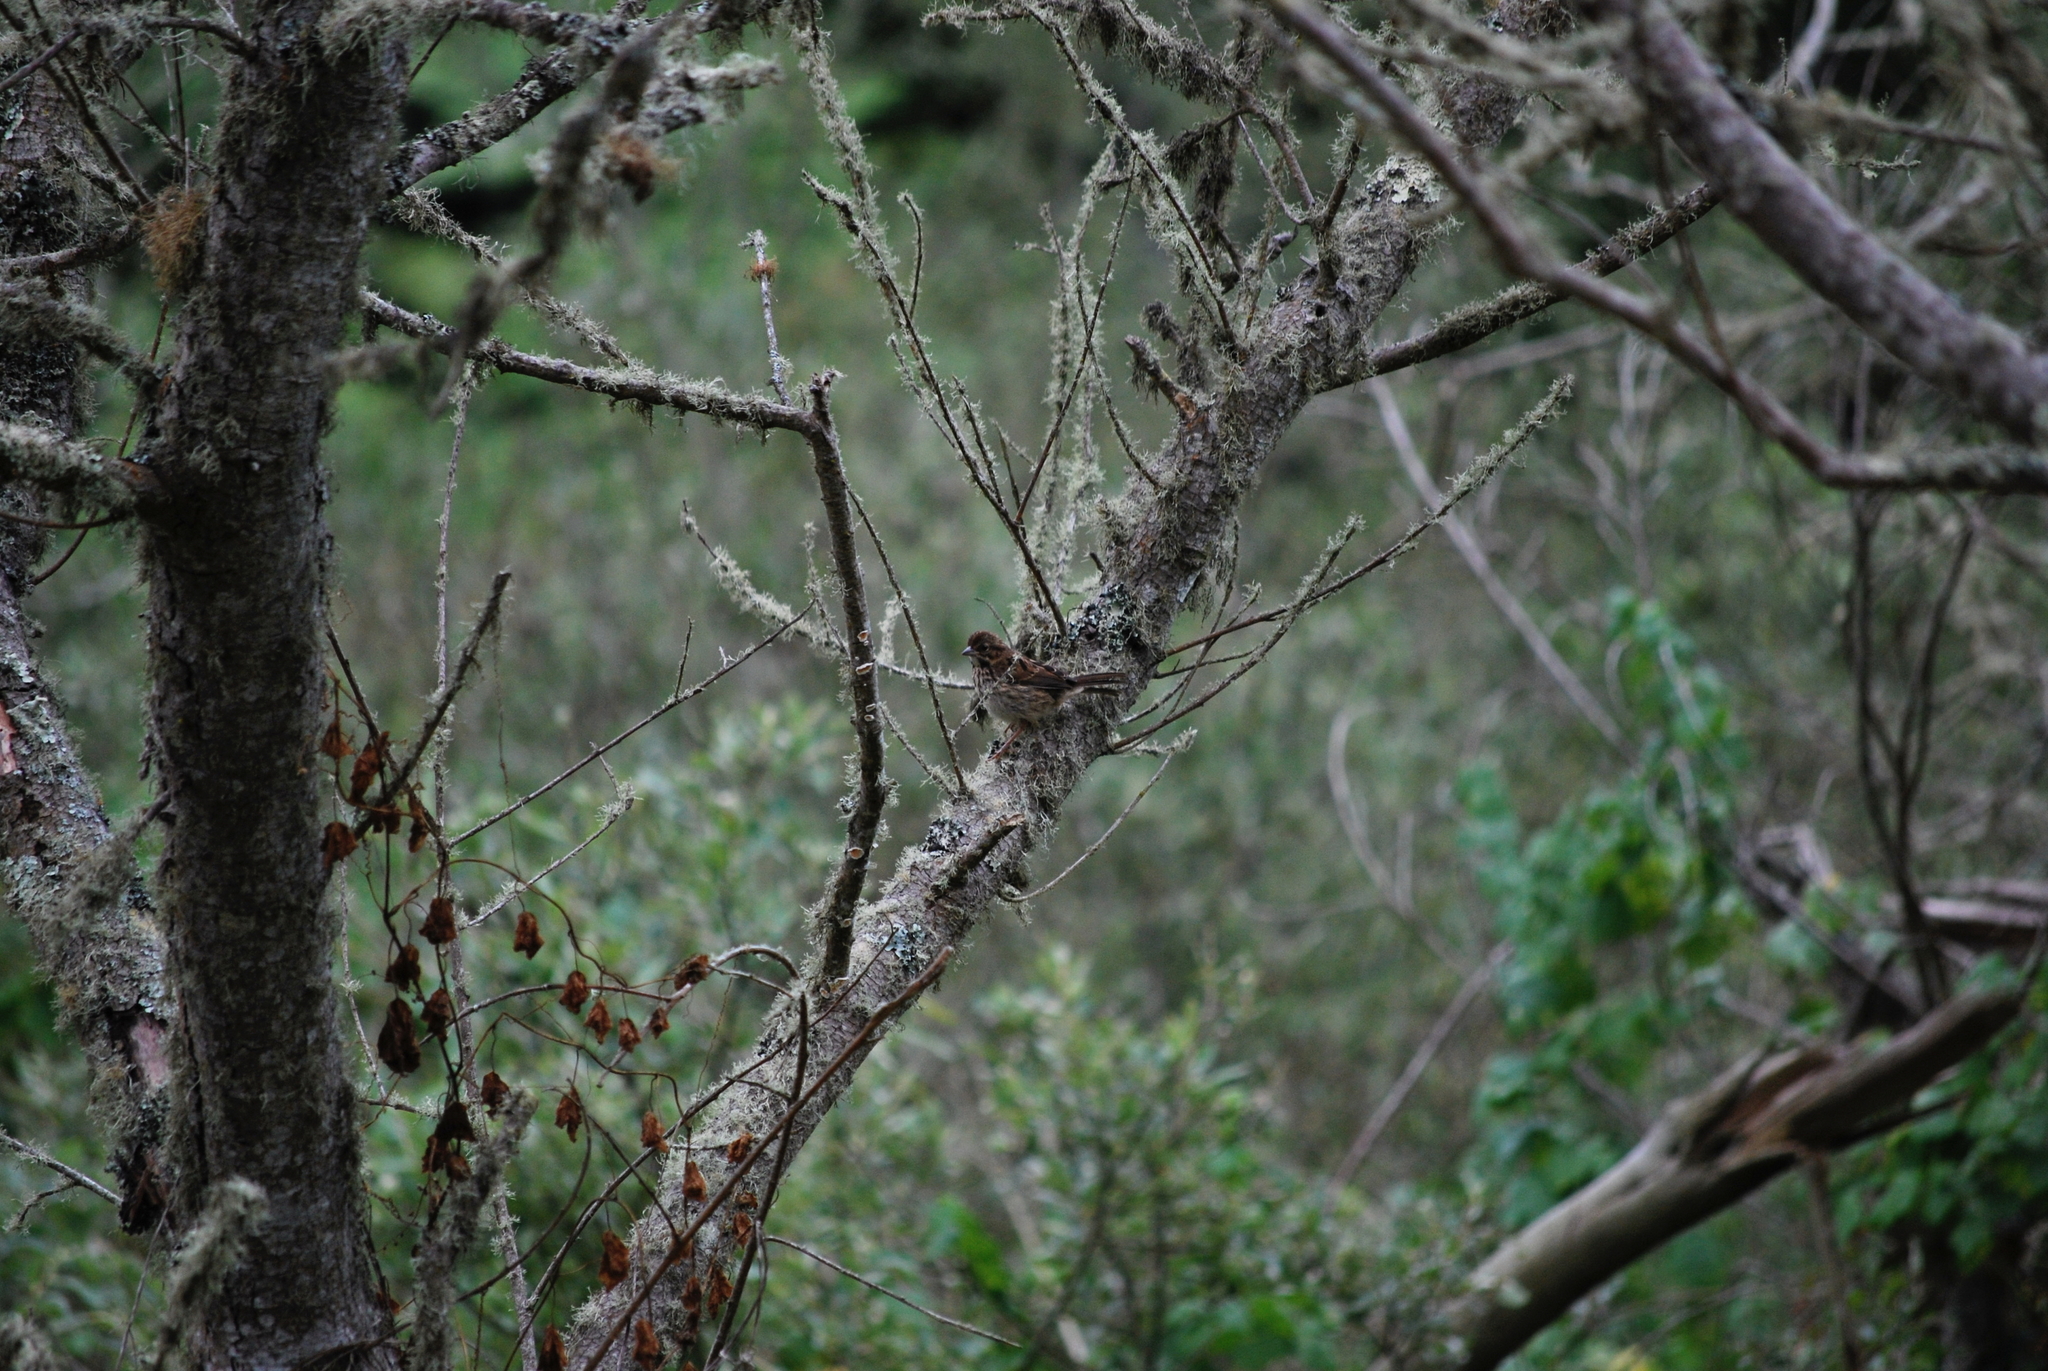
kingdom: Animalia
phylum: Chordata
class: Aves
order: Passeriformes
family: Passerellidae
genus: Melospiza
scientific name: Melospiza melodia
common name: Song sparrow
